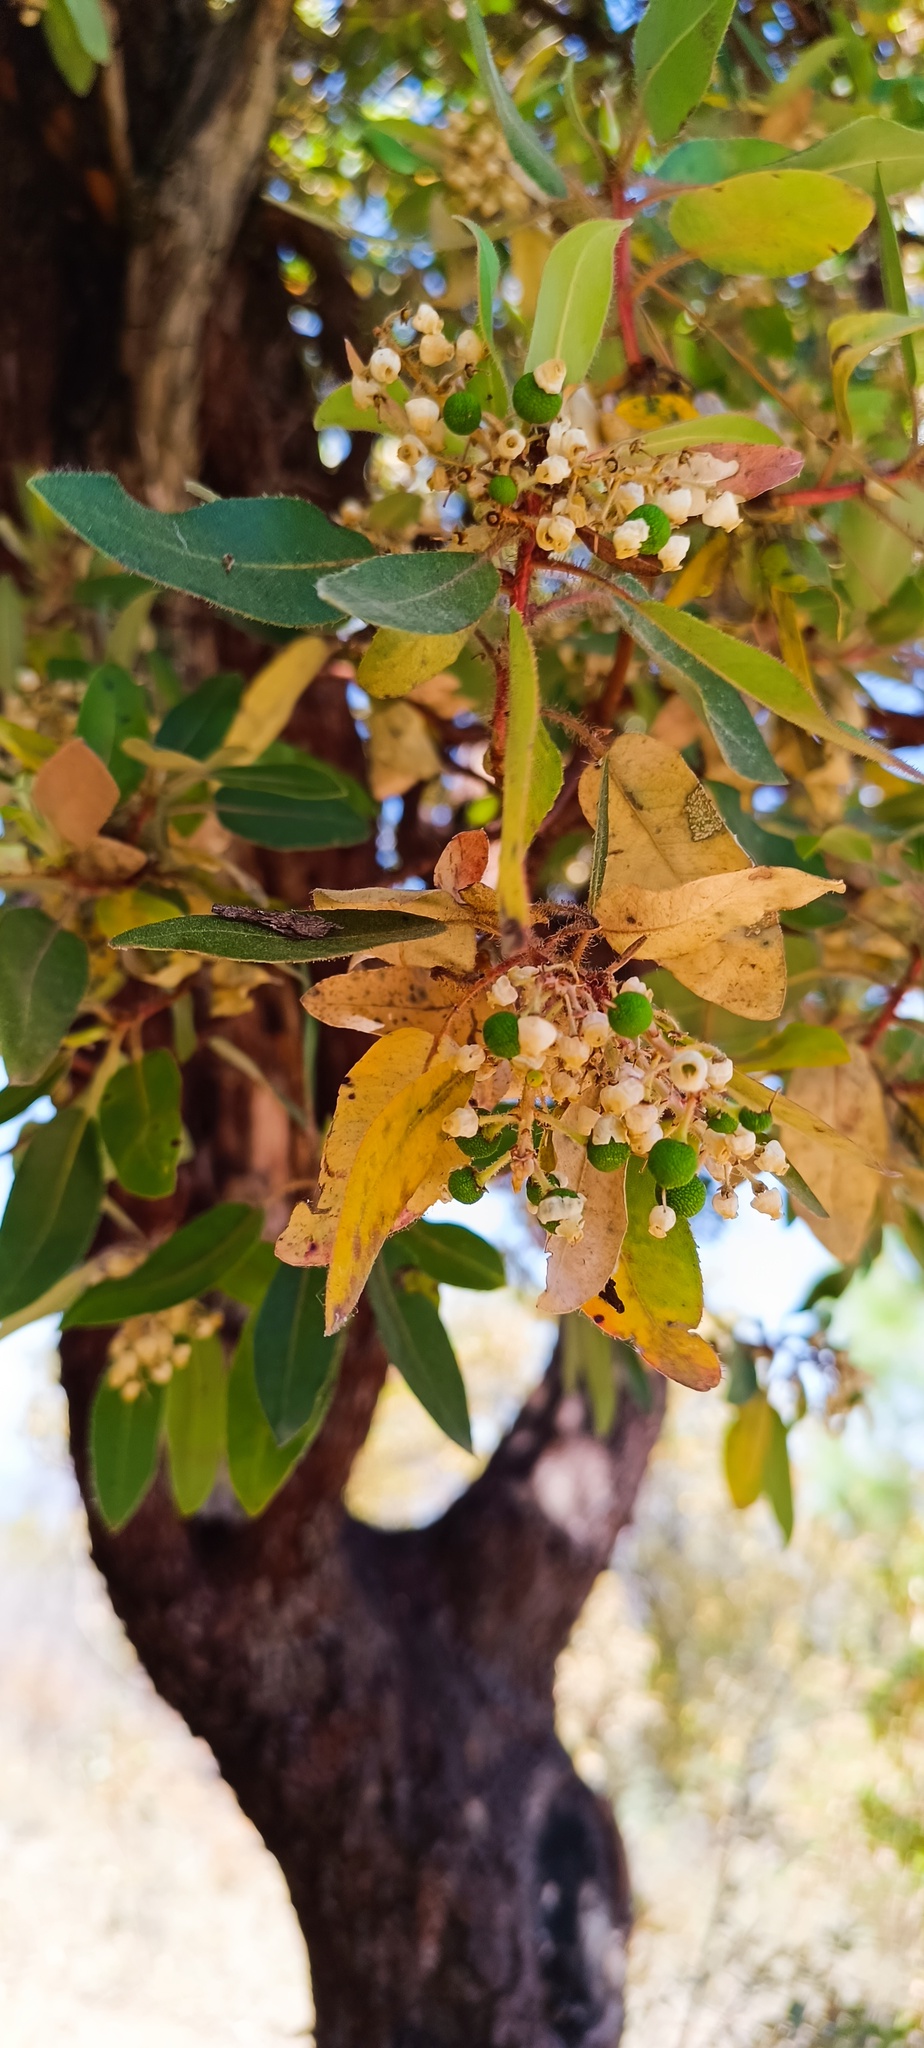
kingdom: Plantae
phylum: Tracheophyta
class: Magnoliopsida
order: Ericales
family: Ericaceae
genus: Arbutus
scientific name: Arbutus tessellata
